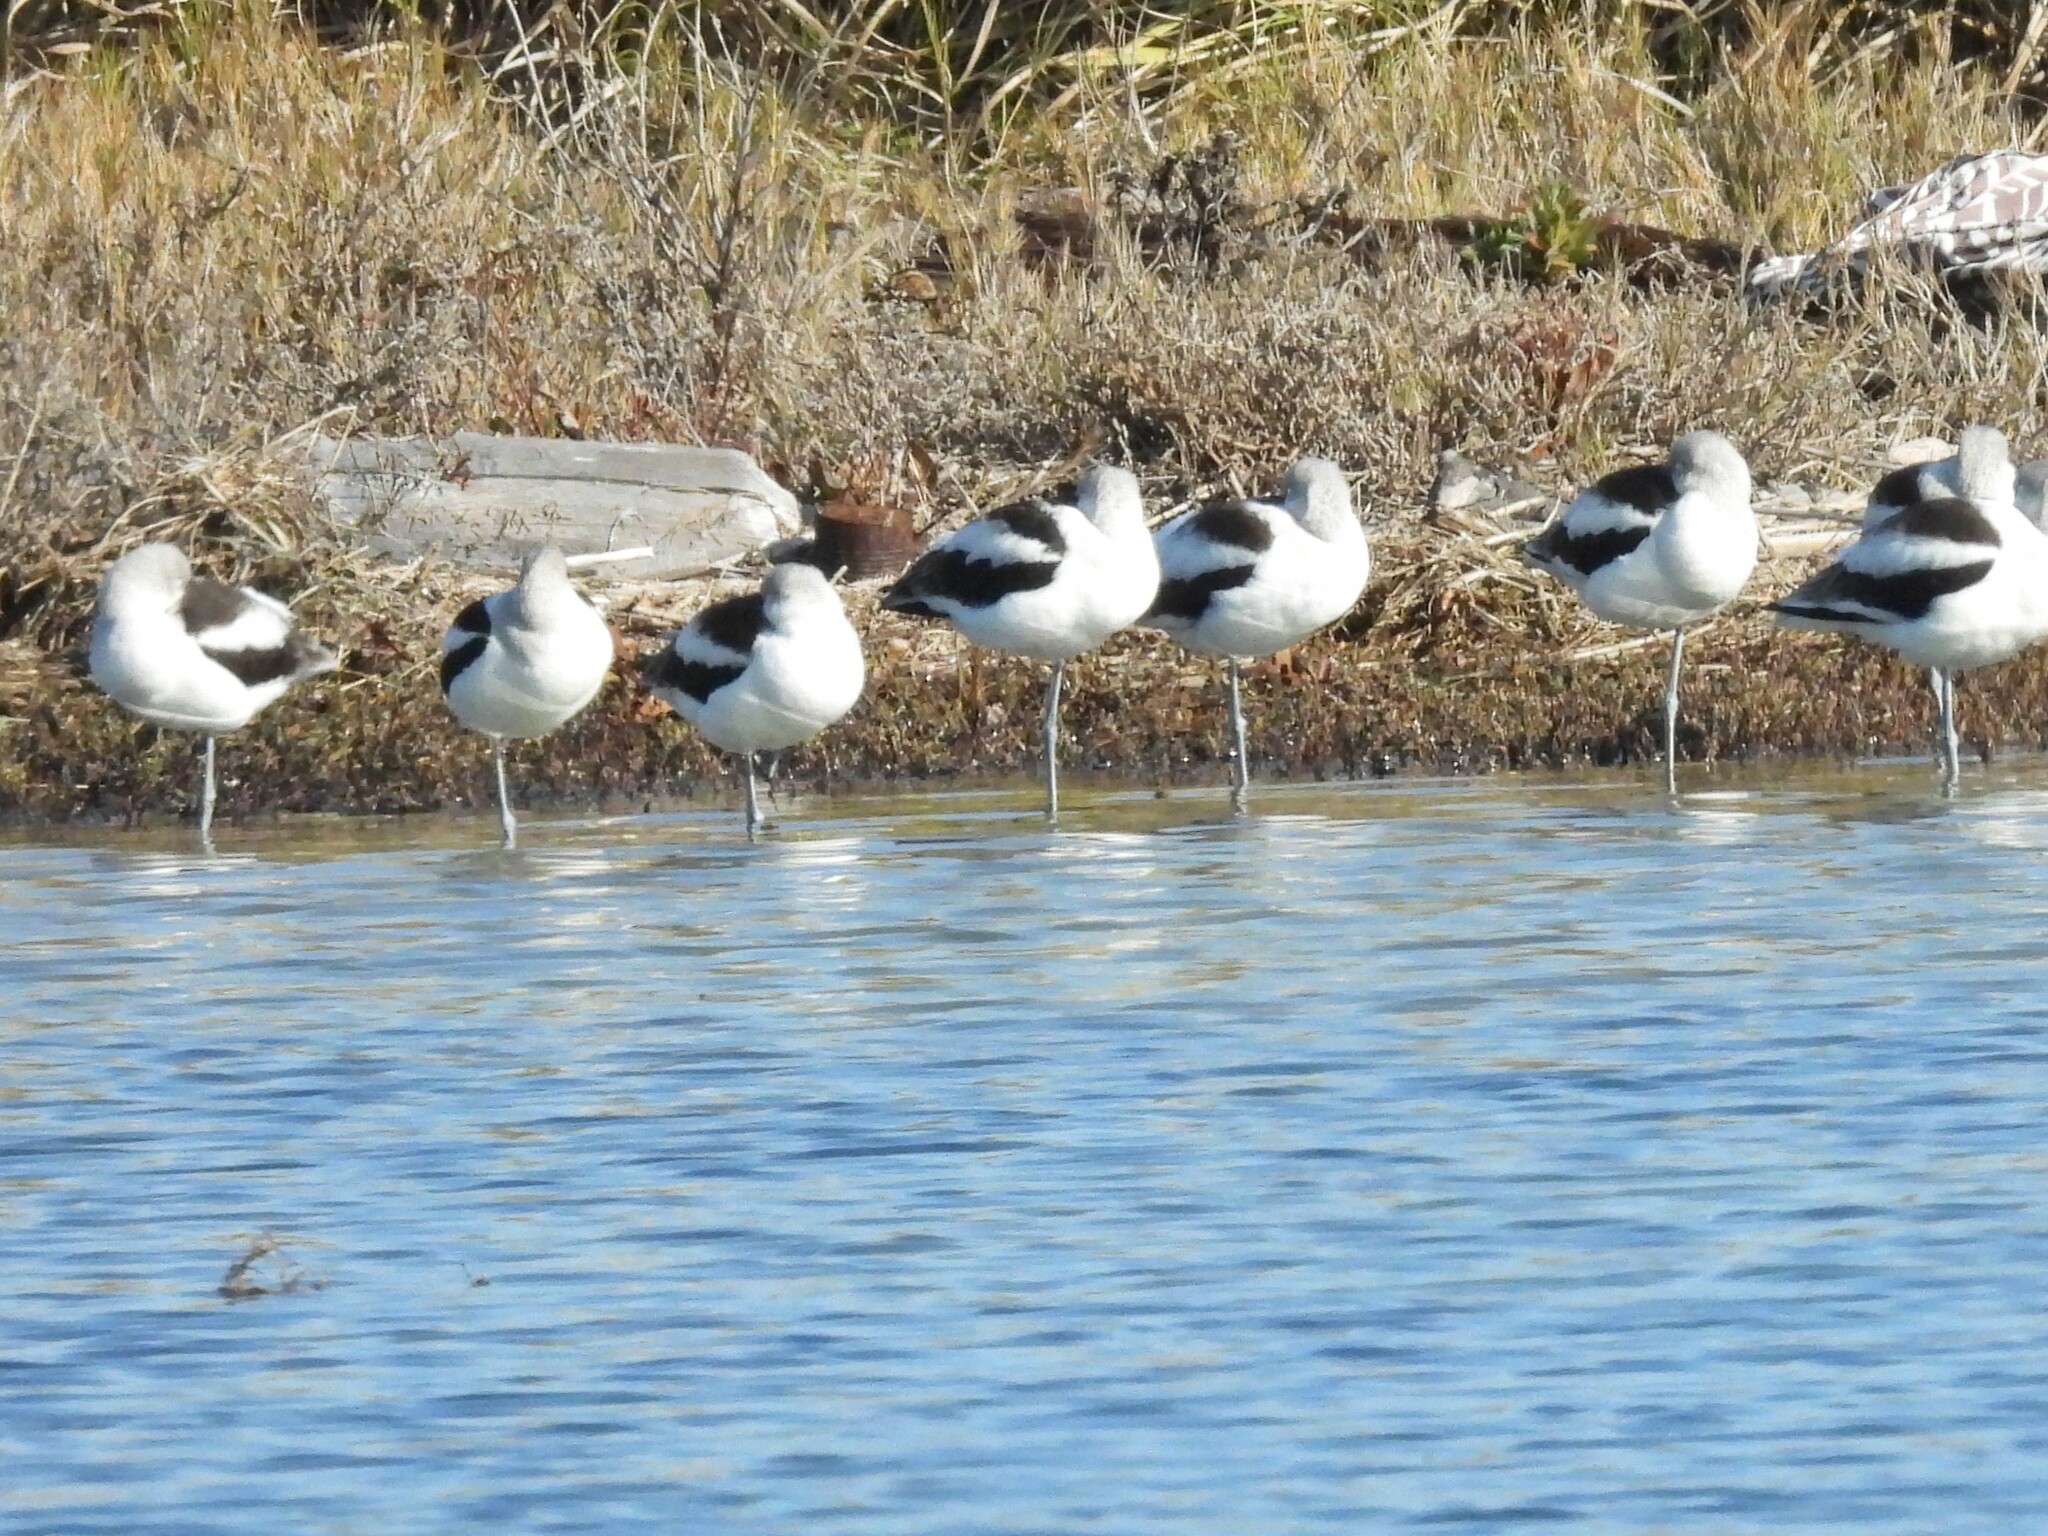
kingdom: Animalia
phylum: Chordata
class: Aves
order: Charadriiformes
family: Recurvirostridae
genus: Recurvirostra
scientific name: Recurvirostra americana
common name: American avocet
